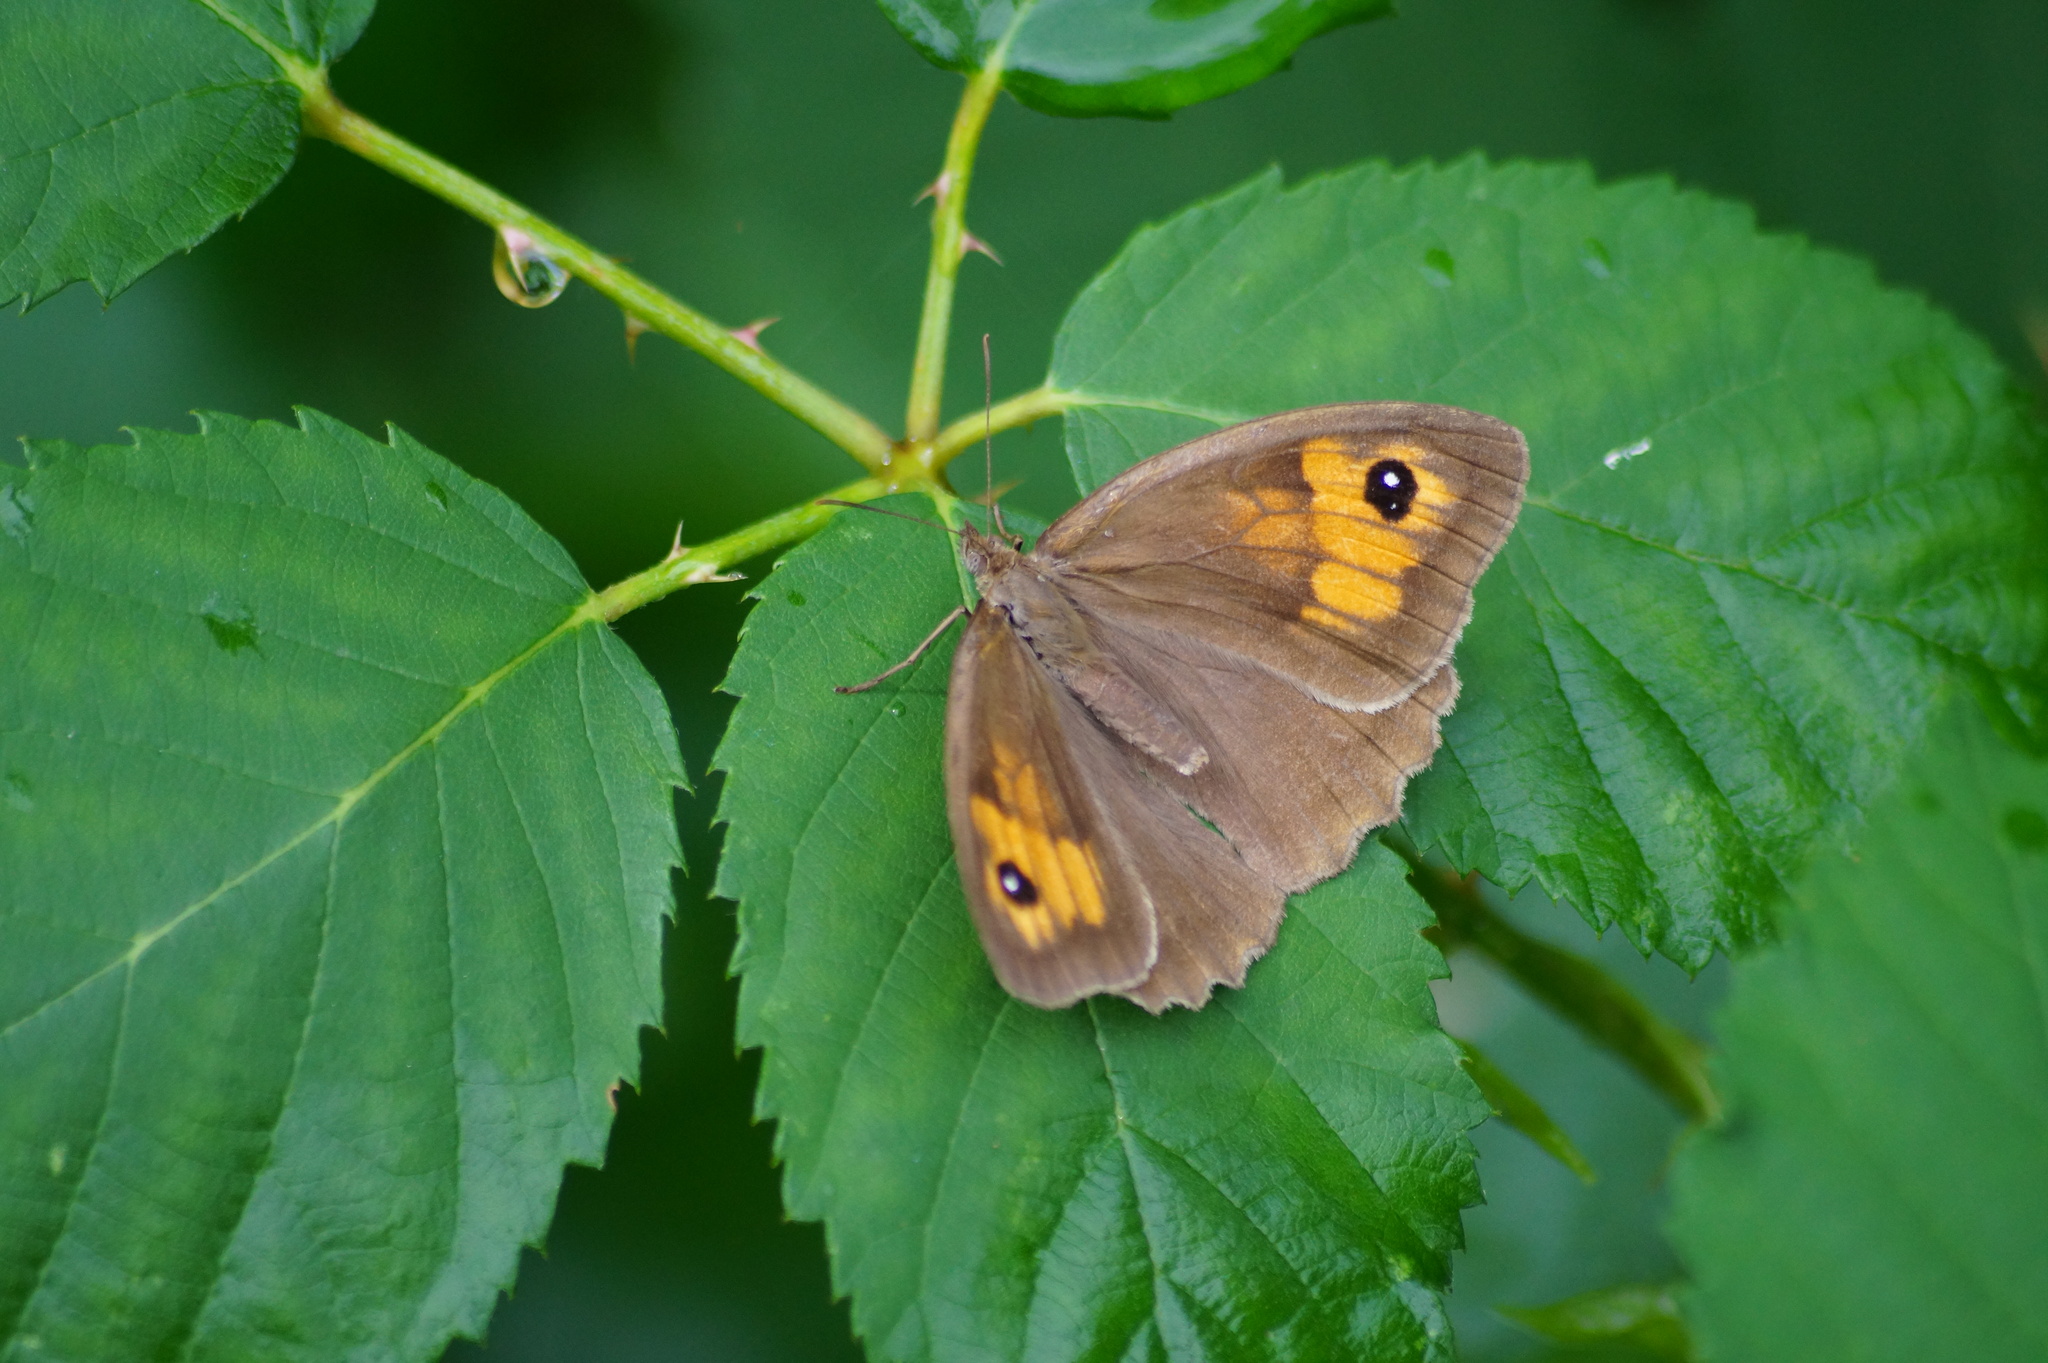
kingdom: Animalia
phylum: Arthropoda
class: Insecta
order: Lepidoptera
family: Nymphalidae
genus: Maniola
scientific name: Maniola jurtina
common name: Meadow brown
